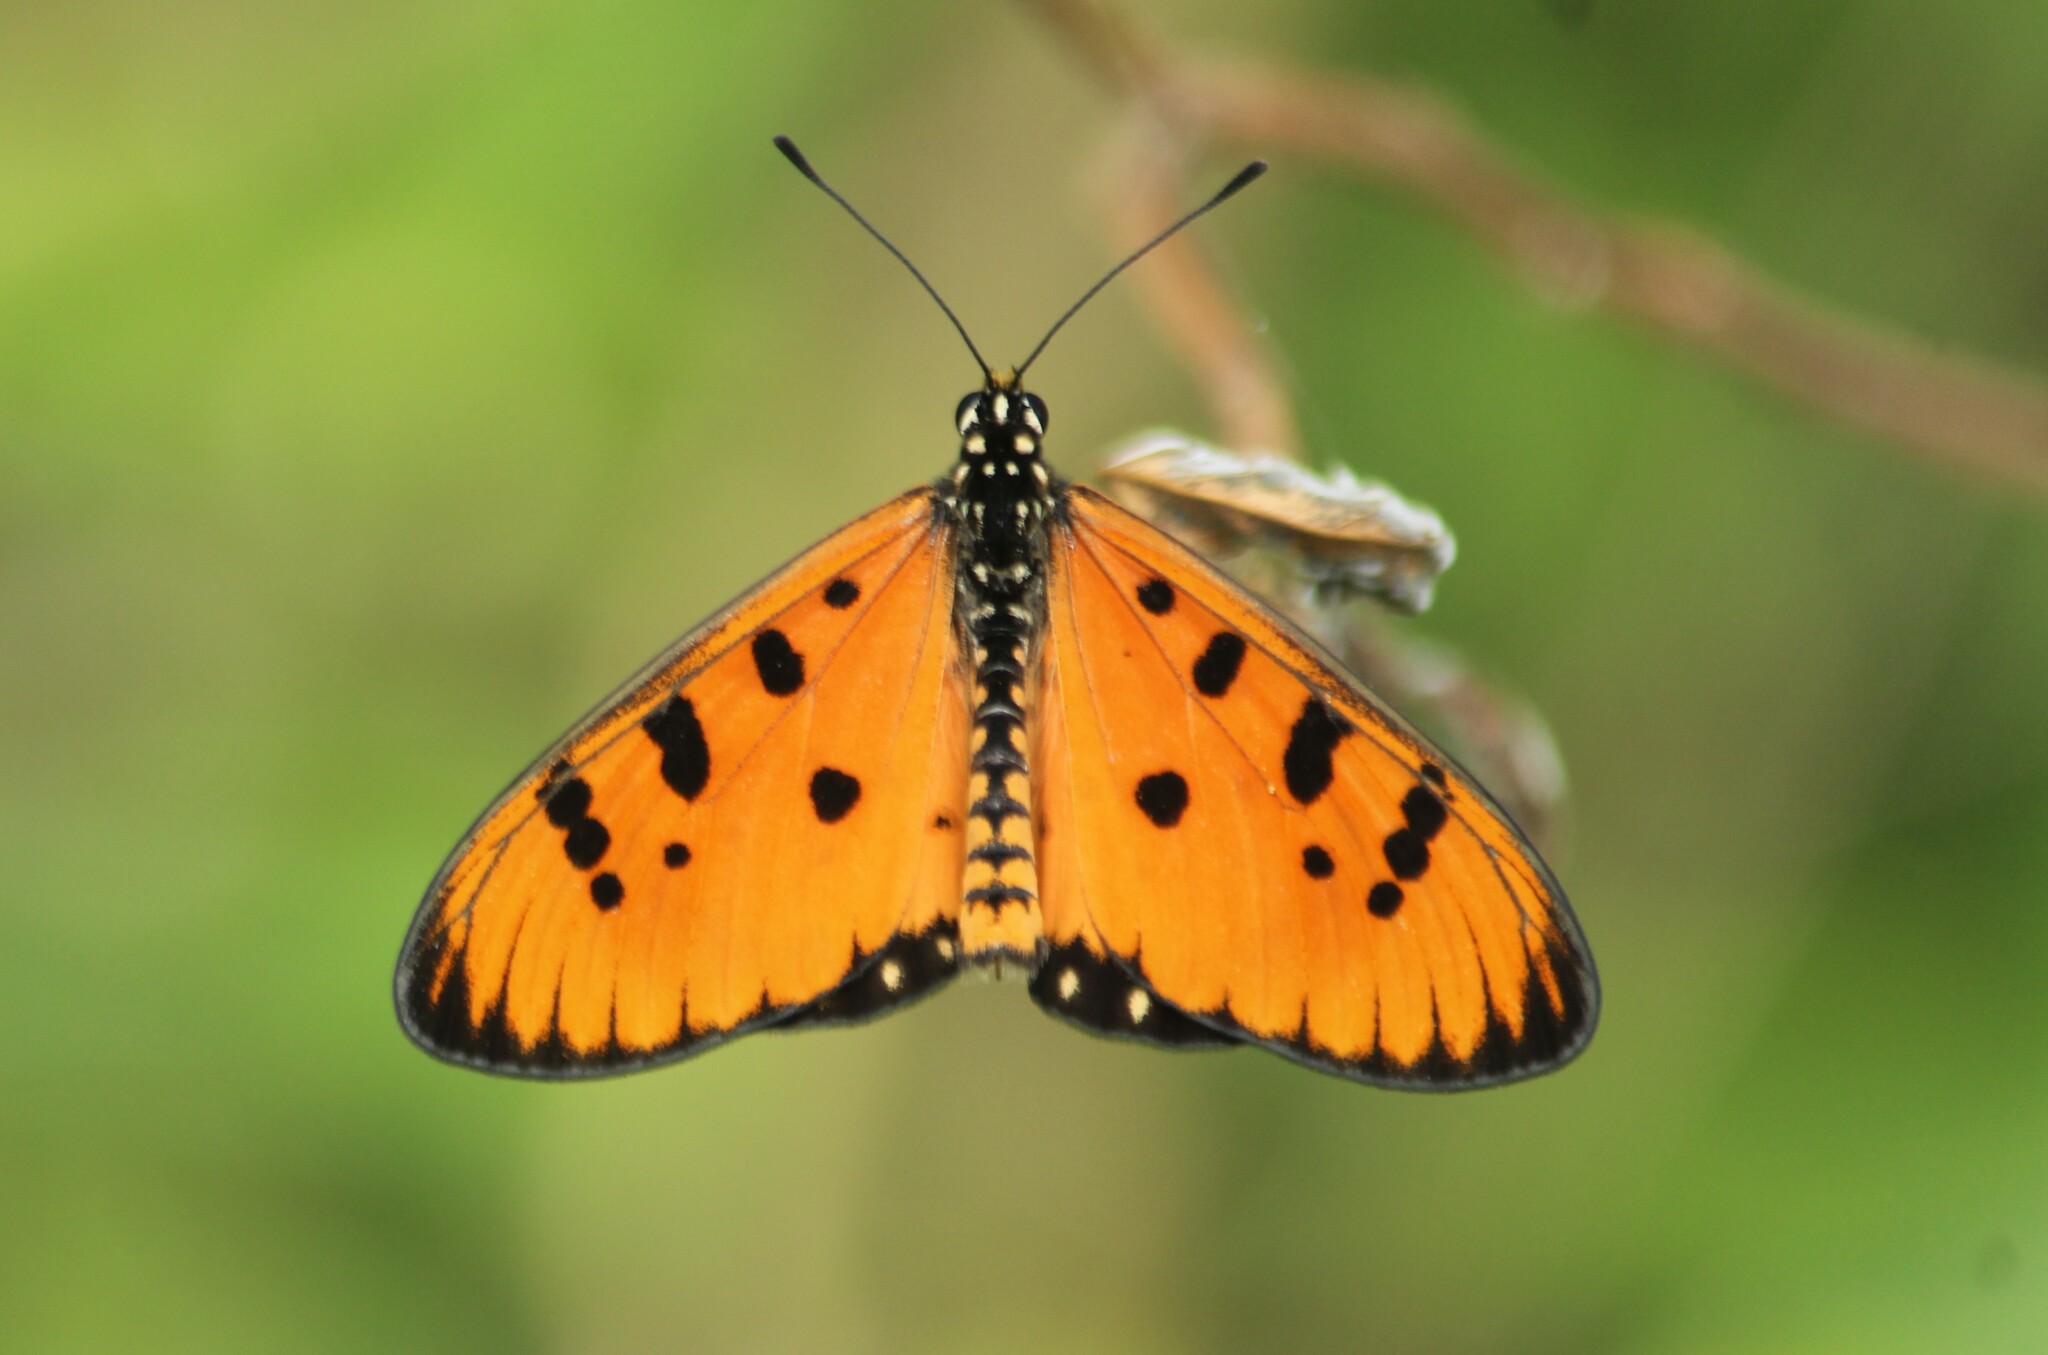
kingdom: Animalia
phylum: Arthropoda
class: Insecta
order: Lepidoptera
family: Nymphalidae
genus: Acraea
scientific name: Acraea terpsicore
